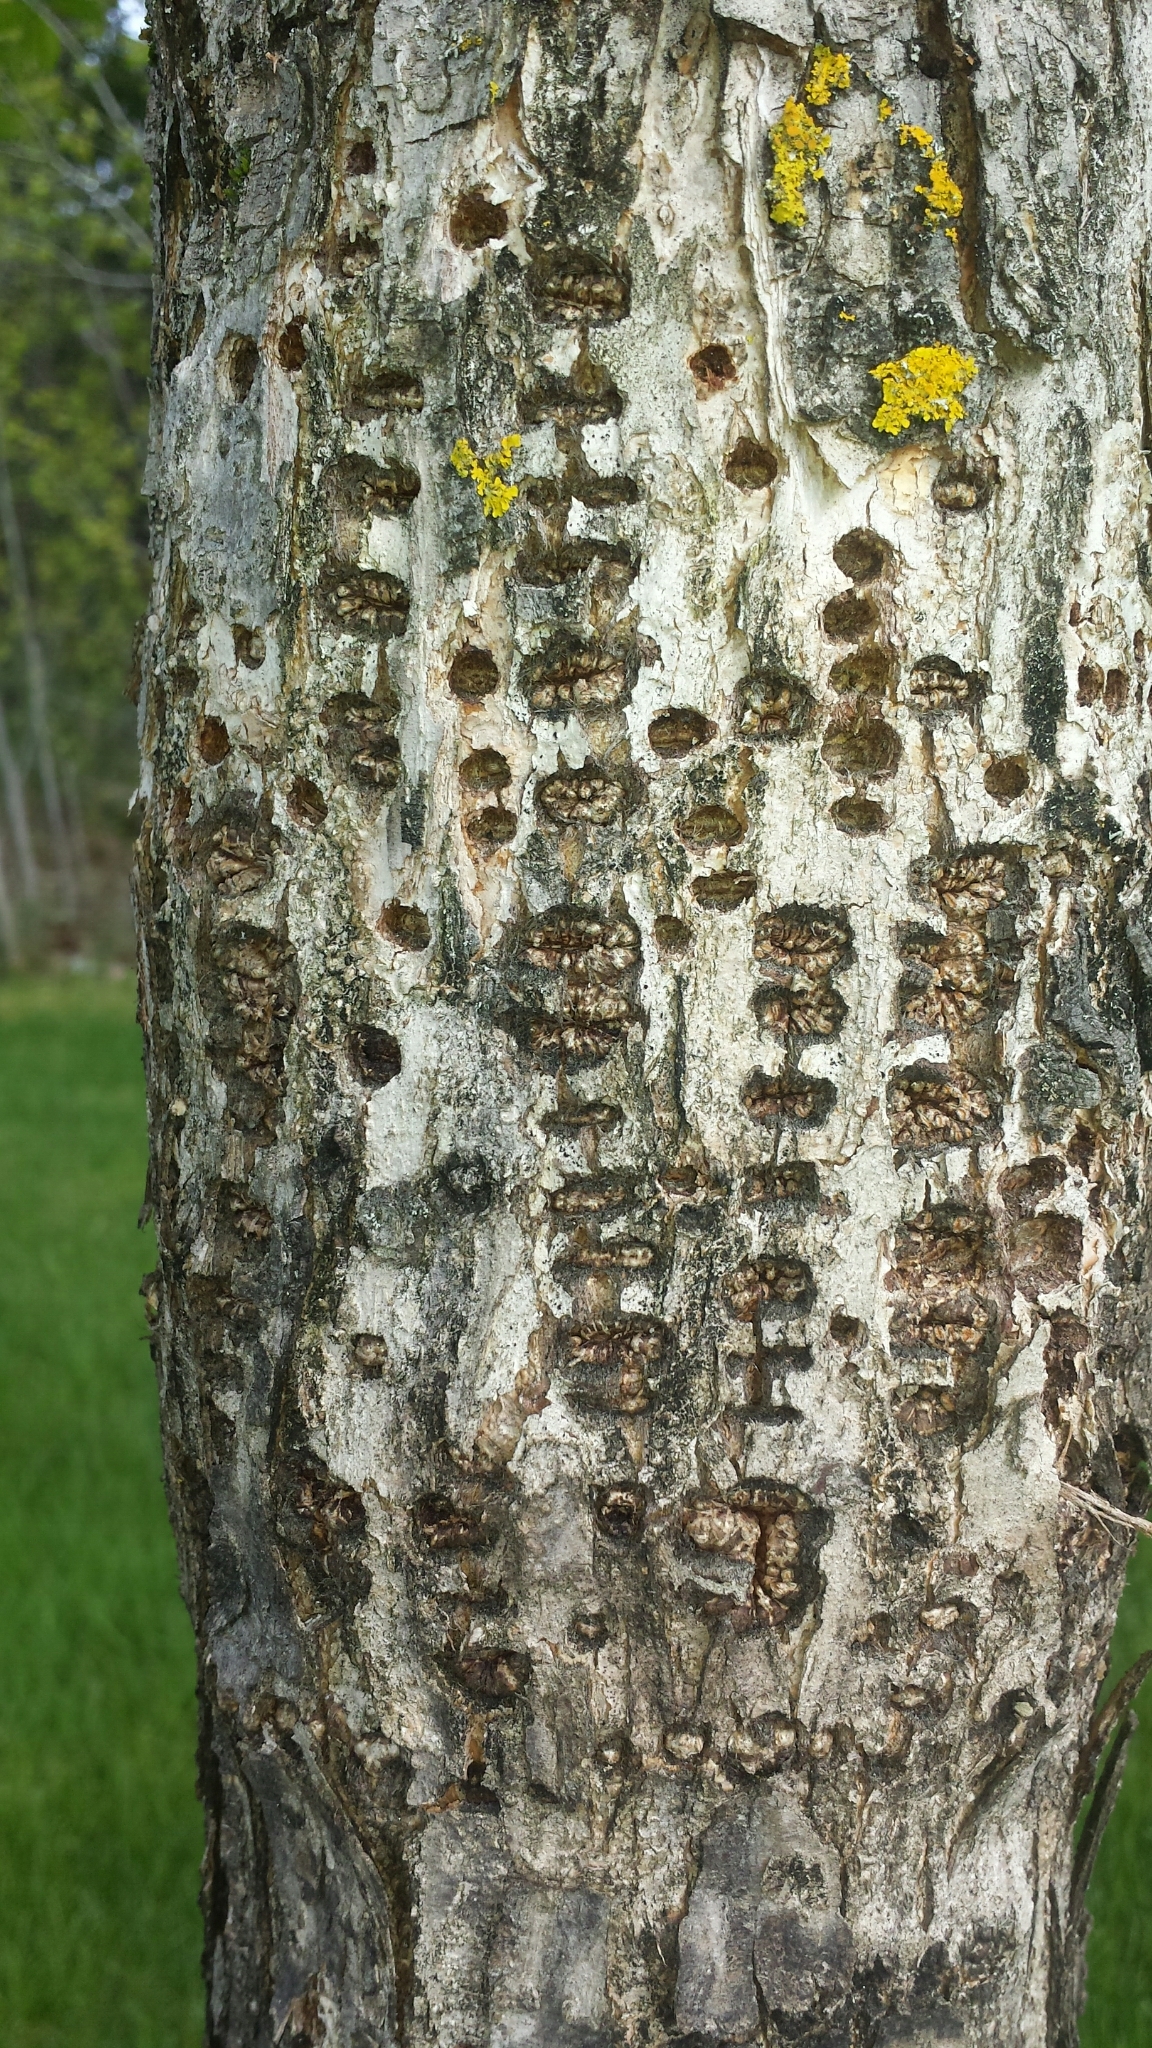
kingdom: Animalia
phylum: Chordata
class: Aves
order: Piciformes
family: Picidae
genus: Sphyrapicus
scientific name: Sphyrapicus varius
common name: Yellow-bellied sapsucker
